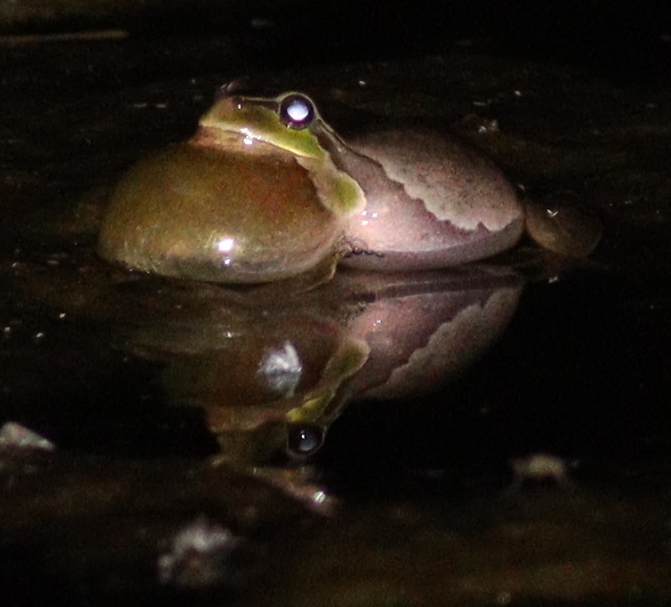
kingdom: Animalia
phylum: Chordata
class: Amphibia
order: Anura
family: Hylidae
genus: Hyla
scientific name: Hyla arborea
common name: Common tree frog
